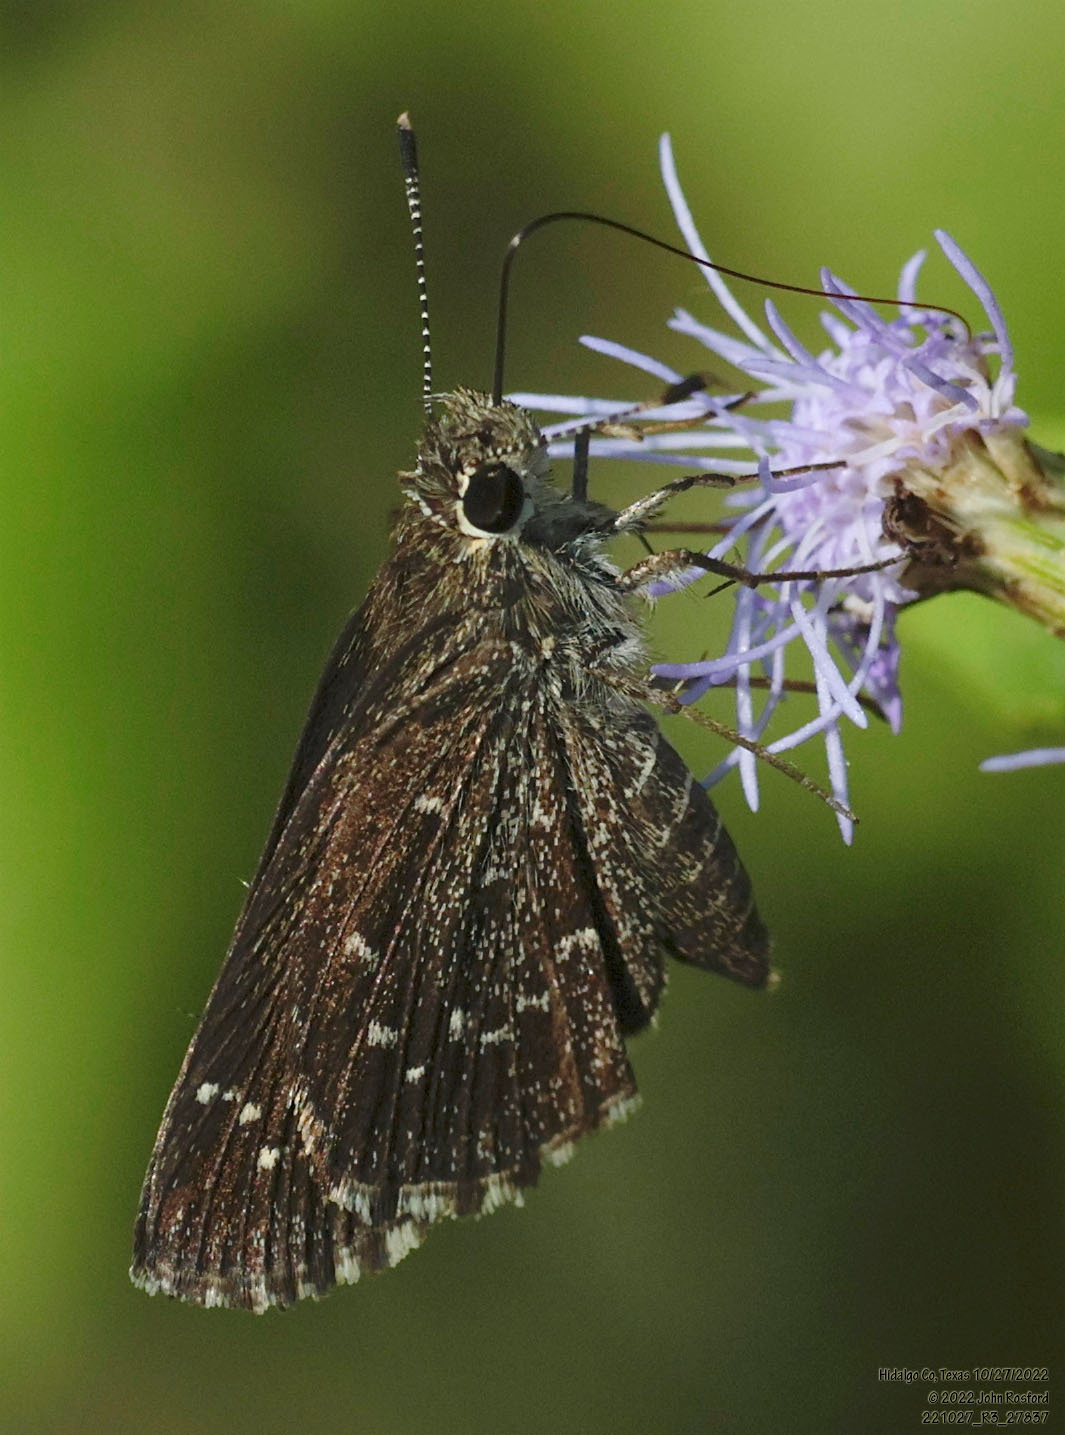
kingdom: Animalia
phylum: Arthropoda
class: Insecta
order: Lepidoptera
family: Hesperiidae
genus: Mastor
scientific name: Mastor celia
